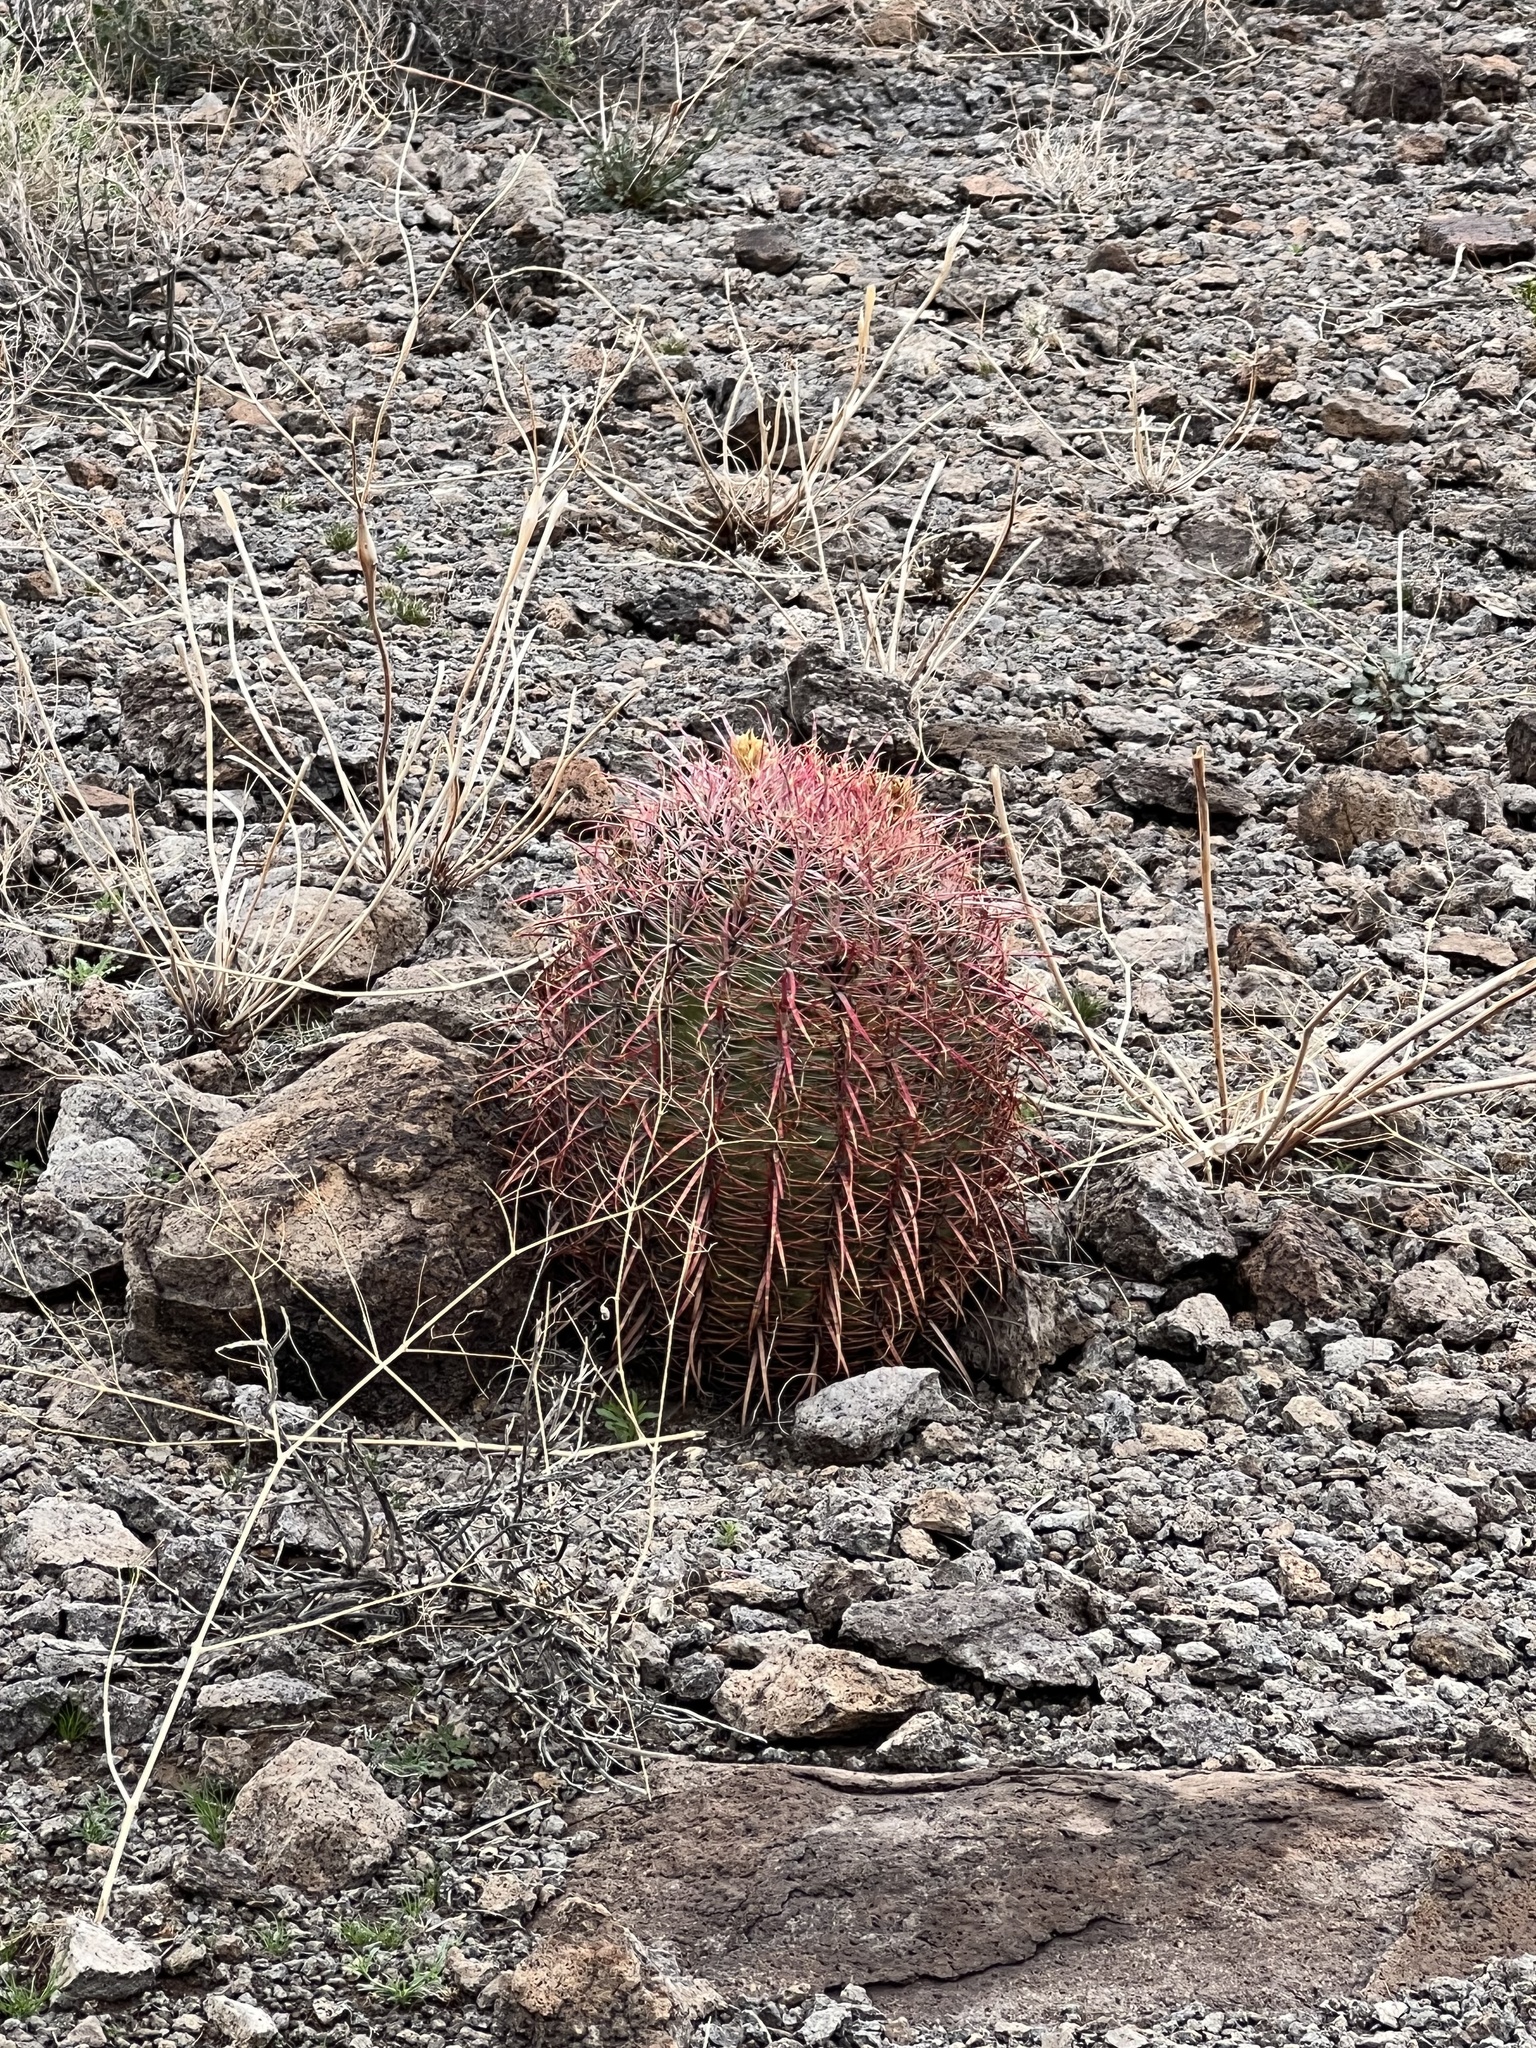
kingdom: Plantae
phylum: Tracheophyta
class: Magnoliopsida
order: Caryophyllales
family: Cactaceae
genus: Ferocactus
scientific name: Ferocactus cylindraceus
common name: California barrel cactus
